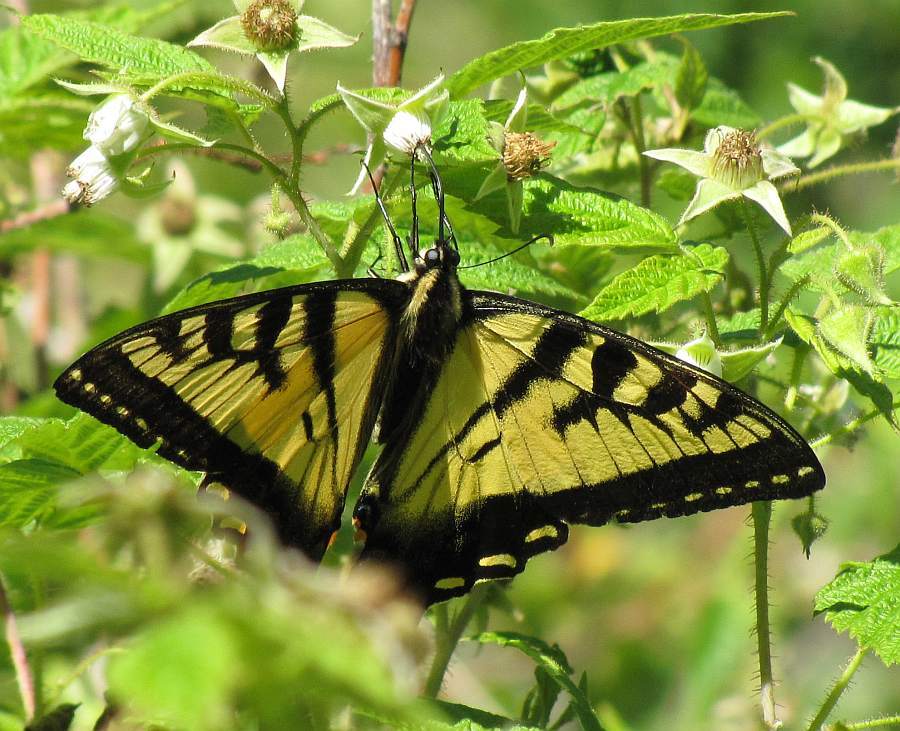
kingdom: Animalia
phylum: Arthropoda
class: Insecta
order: Lepidoptera
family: Papilionidae
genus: Papilio
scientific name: Papilio canadensis
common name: Canadian tiger swallowtail
